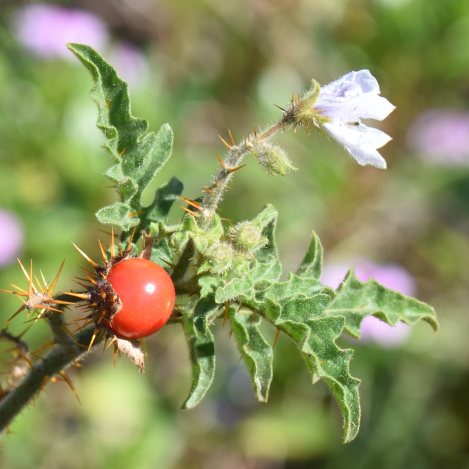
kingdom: Plantae
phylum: Tracheophyta
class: Magnoliopsida
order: Solanales
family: Solanaceae
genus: Solanum
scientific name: Solanum sisymbriifolium
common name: Red buffalo-bur
